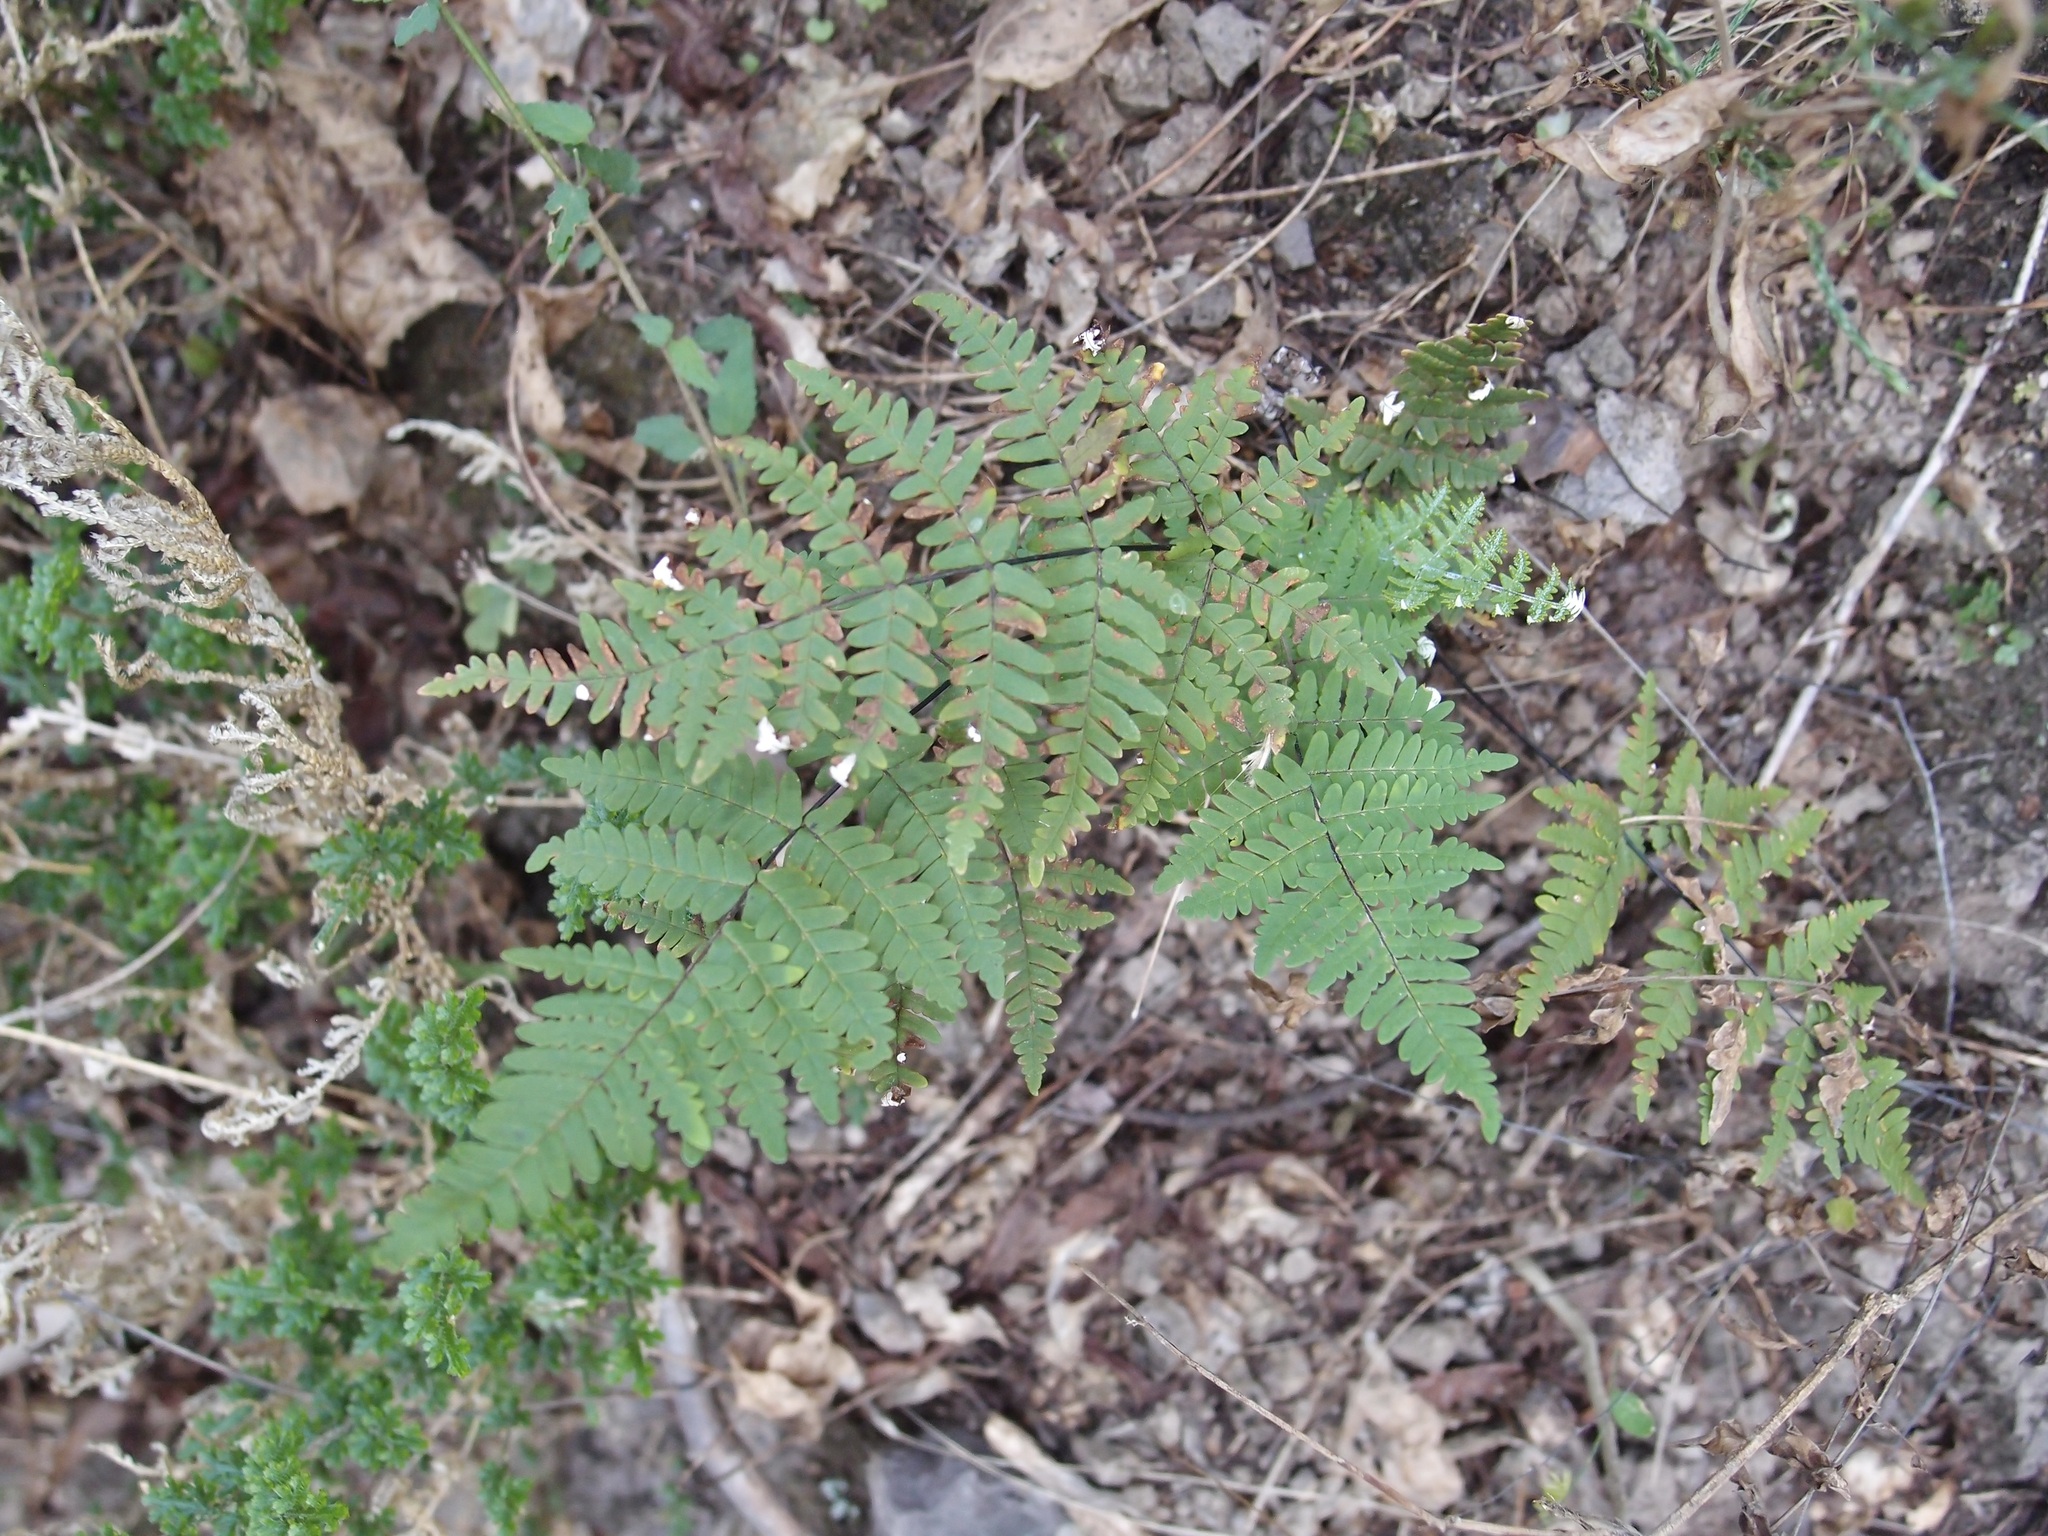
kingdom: Plantae
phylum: Tracheophyta
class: Polypodiopsida
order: Polypodiales
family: Pteridaceae
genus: Notholaena
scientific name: Notholaena candida
